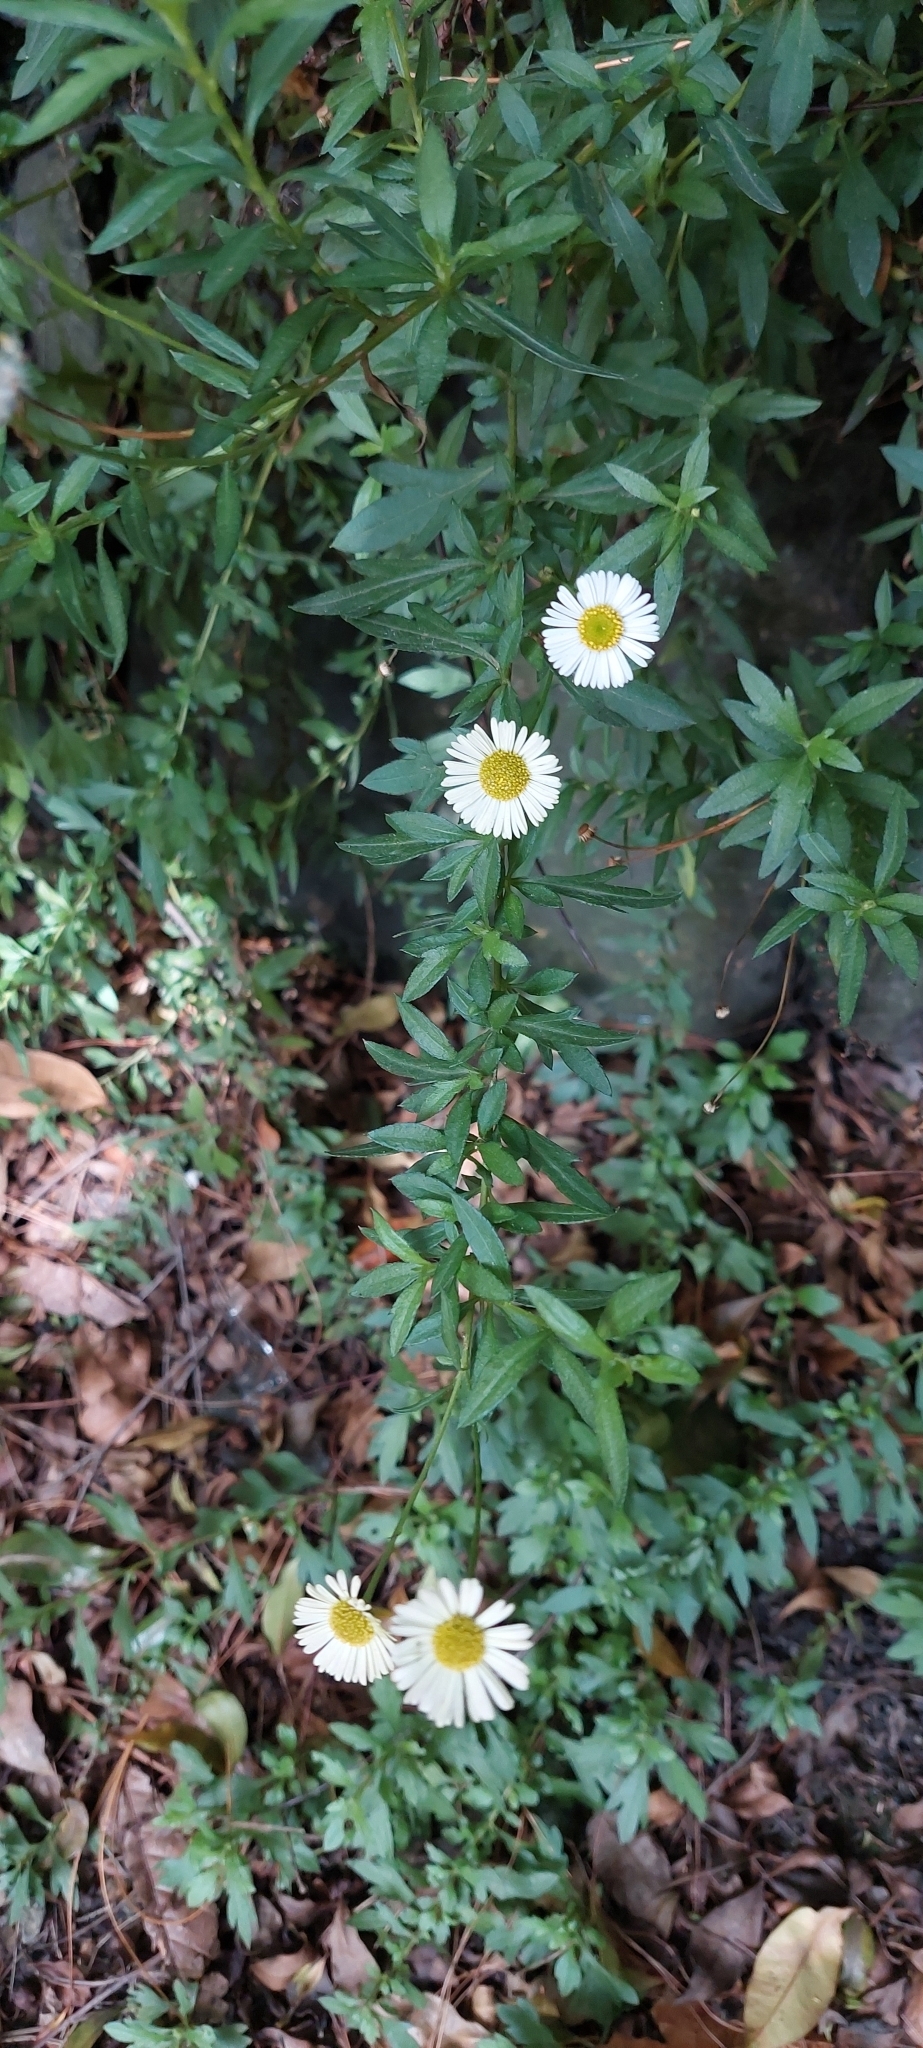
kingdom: Plantae
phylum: Tracheophyta
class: Magnoliopsida
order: Asterales
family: Asteraceae
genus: Erigeron
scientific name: Erigeron karvinskianus
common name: Mexican fleabane
